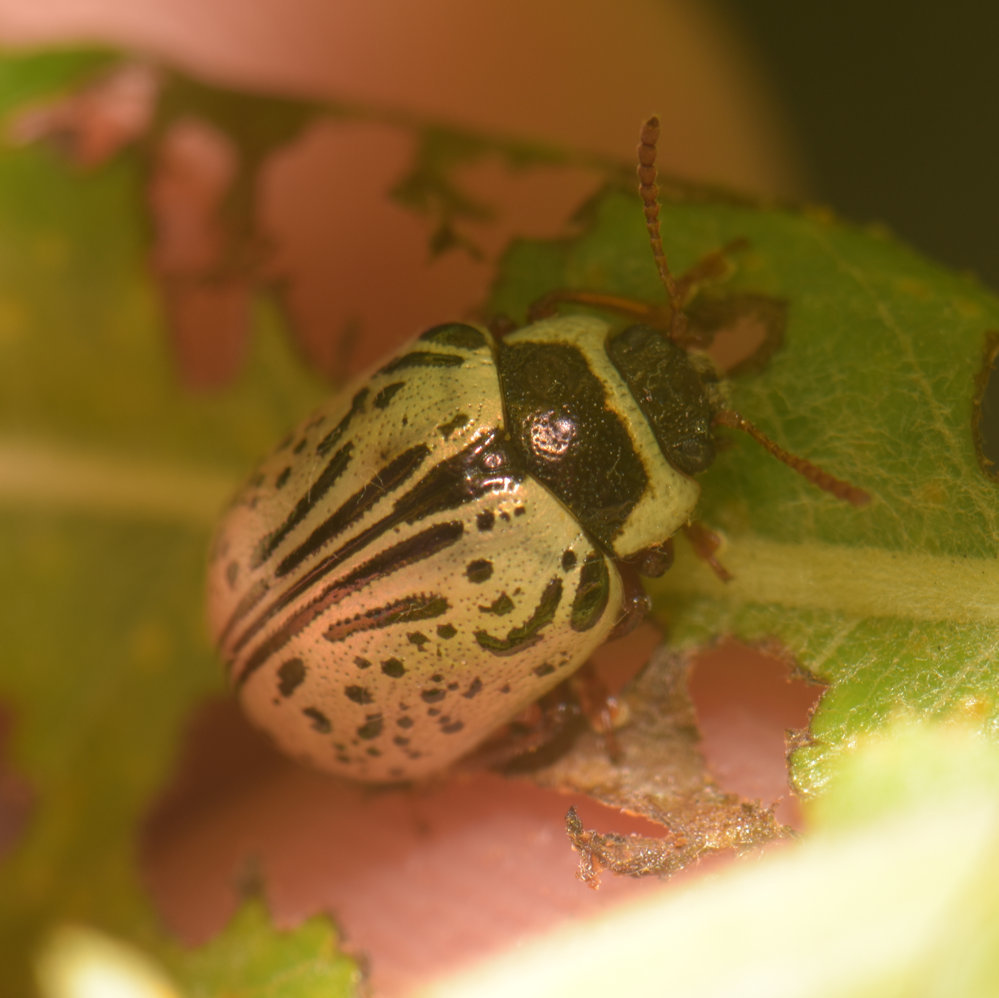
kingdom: Animalia
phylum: Arthropoda
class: Insecta
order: Coleoptera
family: Chrysomelidae
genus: Calligrapha
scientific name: Calligrapha multipunctata
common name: Common willow calligrapher beetle
